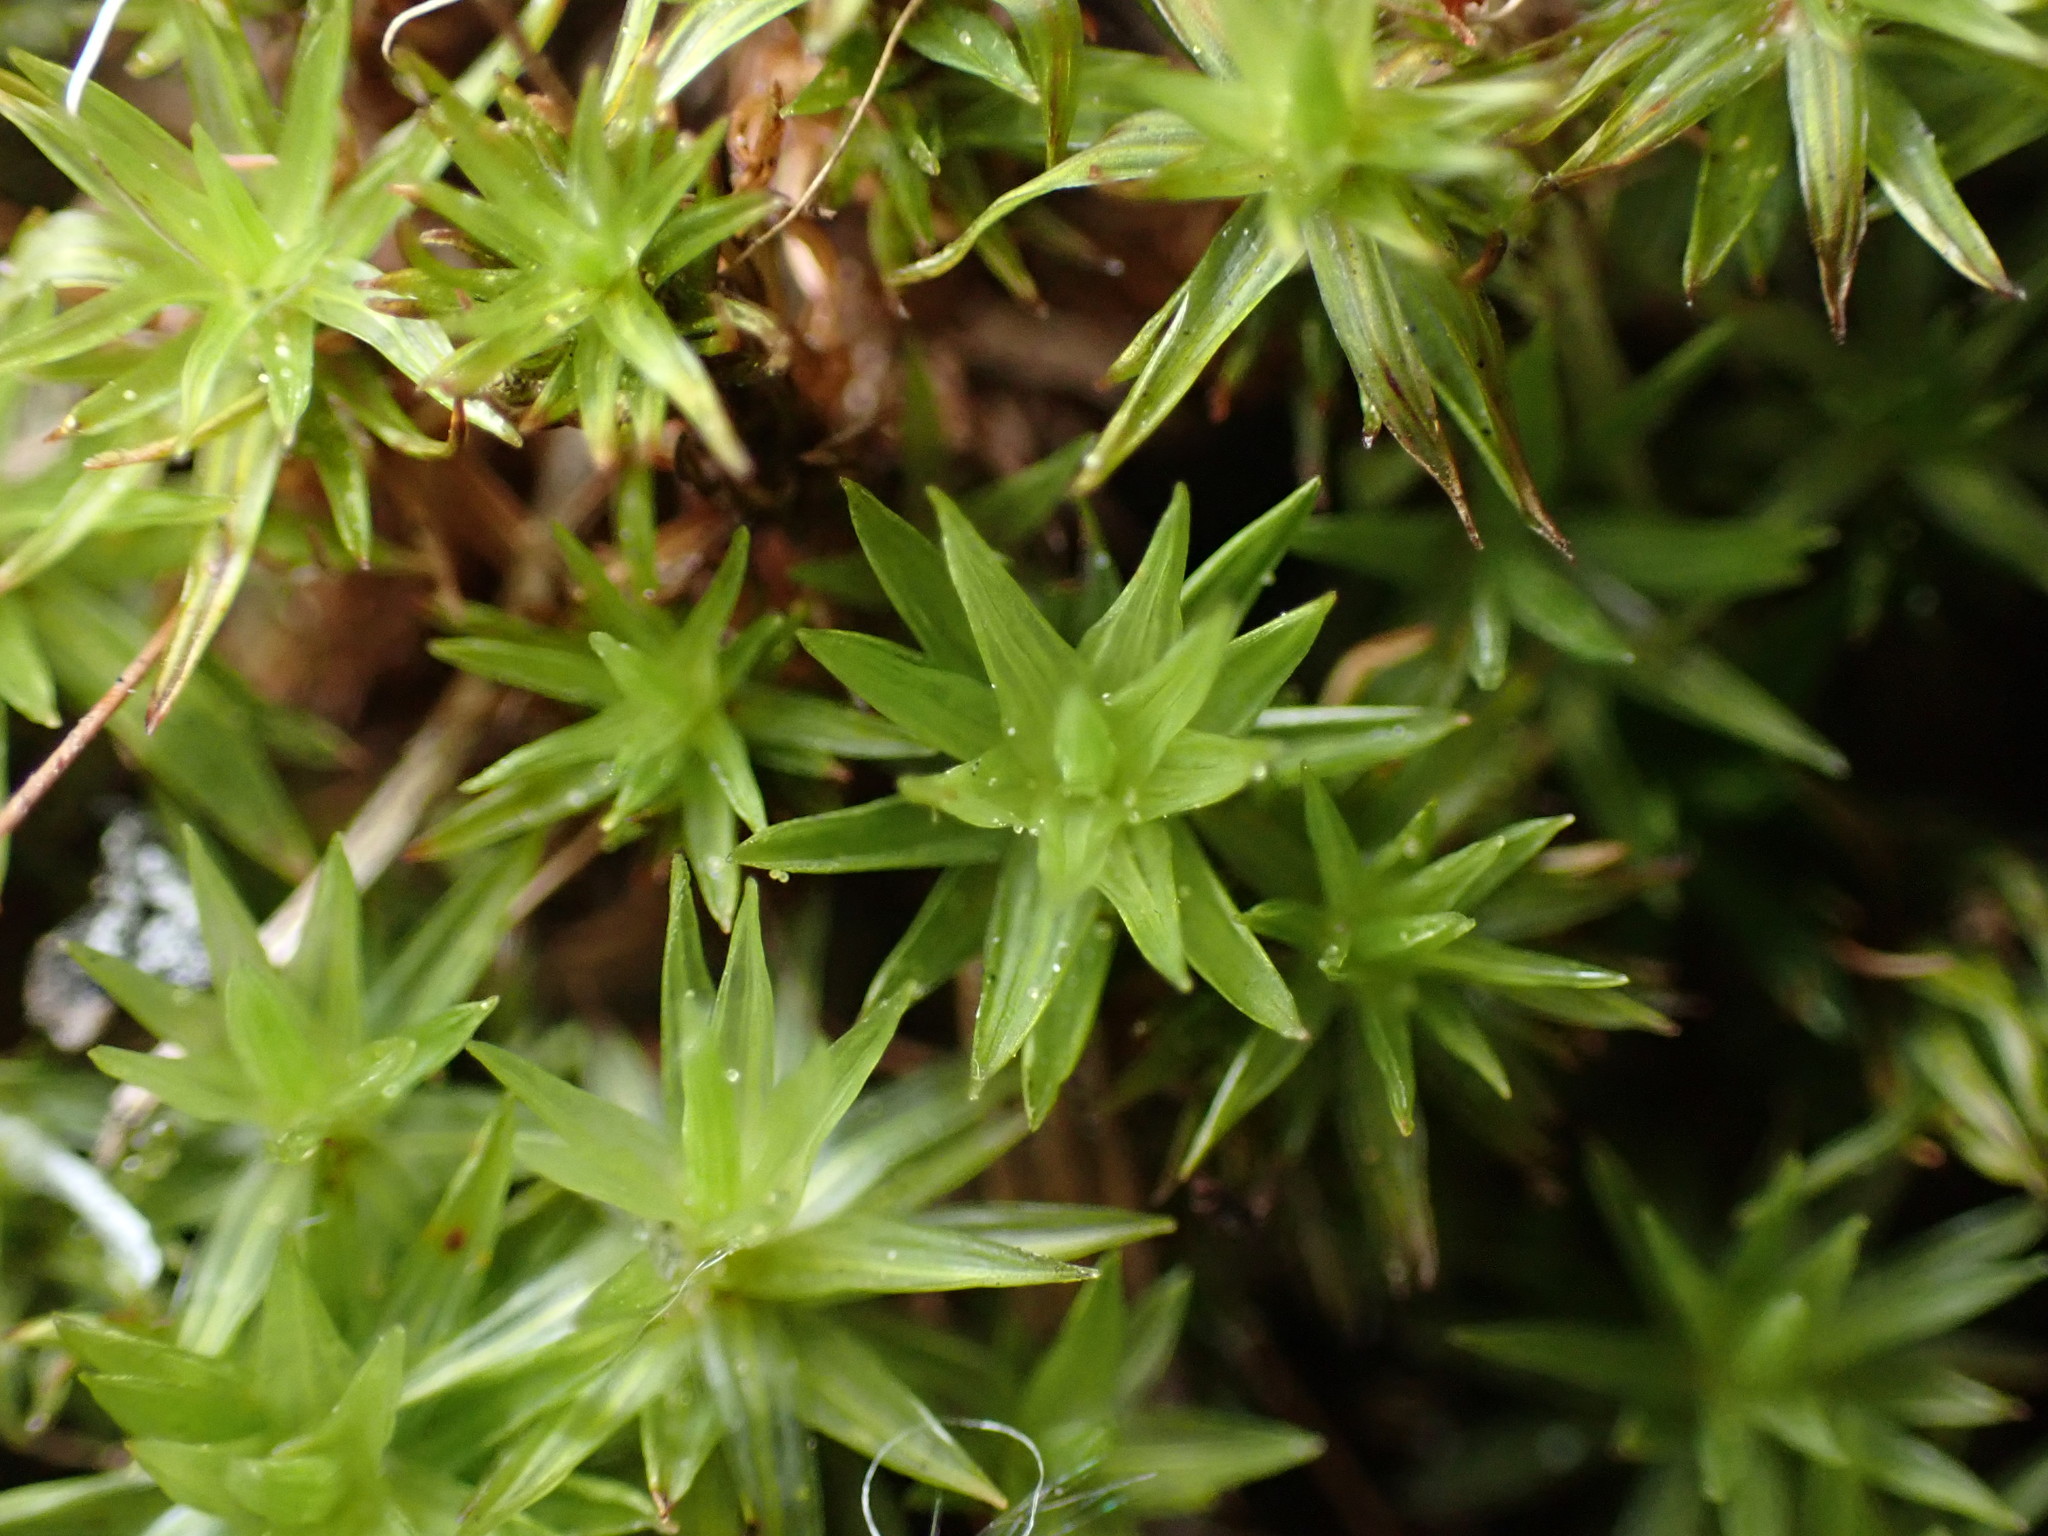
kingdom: Plantae
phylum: Bryophyta
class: Bryopsida
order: Timmiales
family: Timmiaceae
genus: Timmia
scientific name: Timmia austriaca
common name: Austrian timmia
